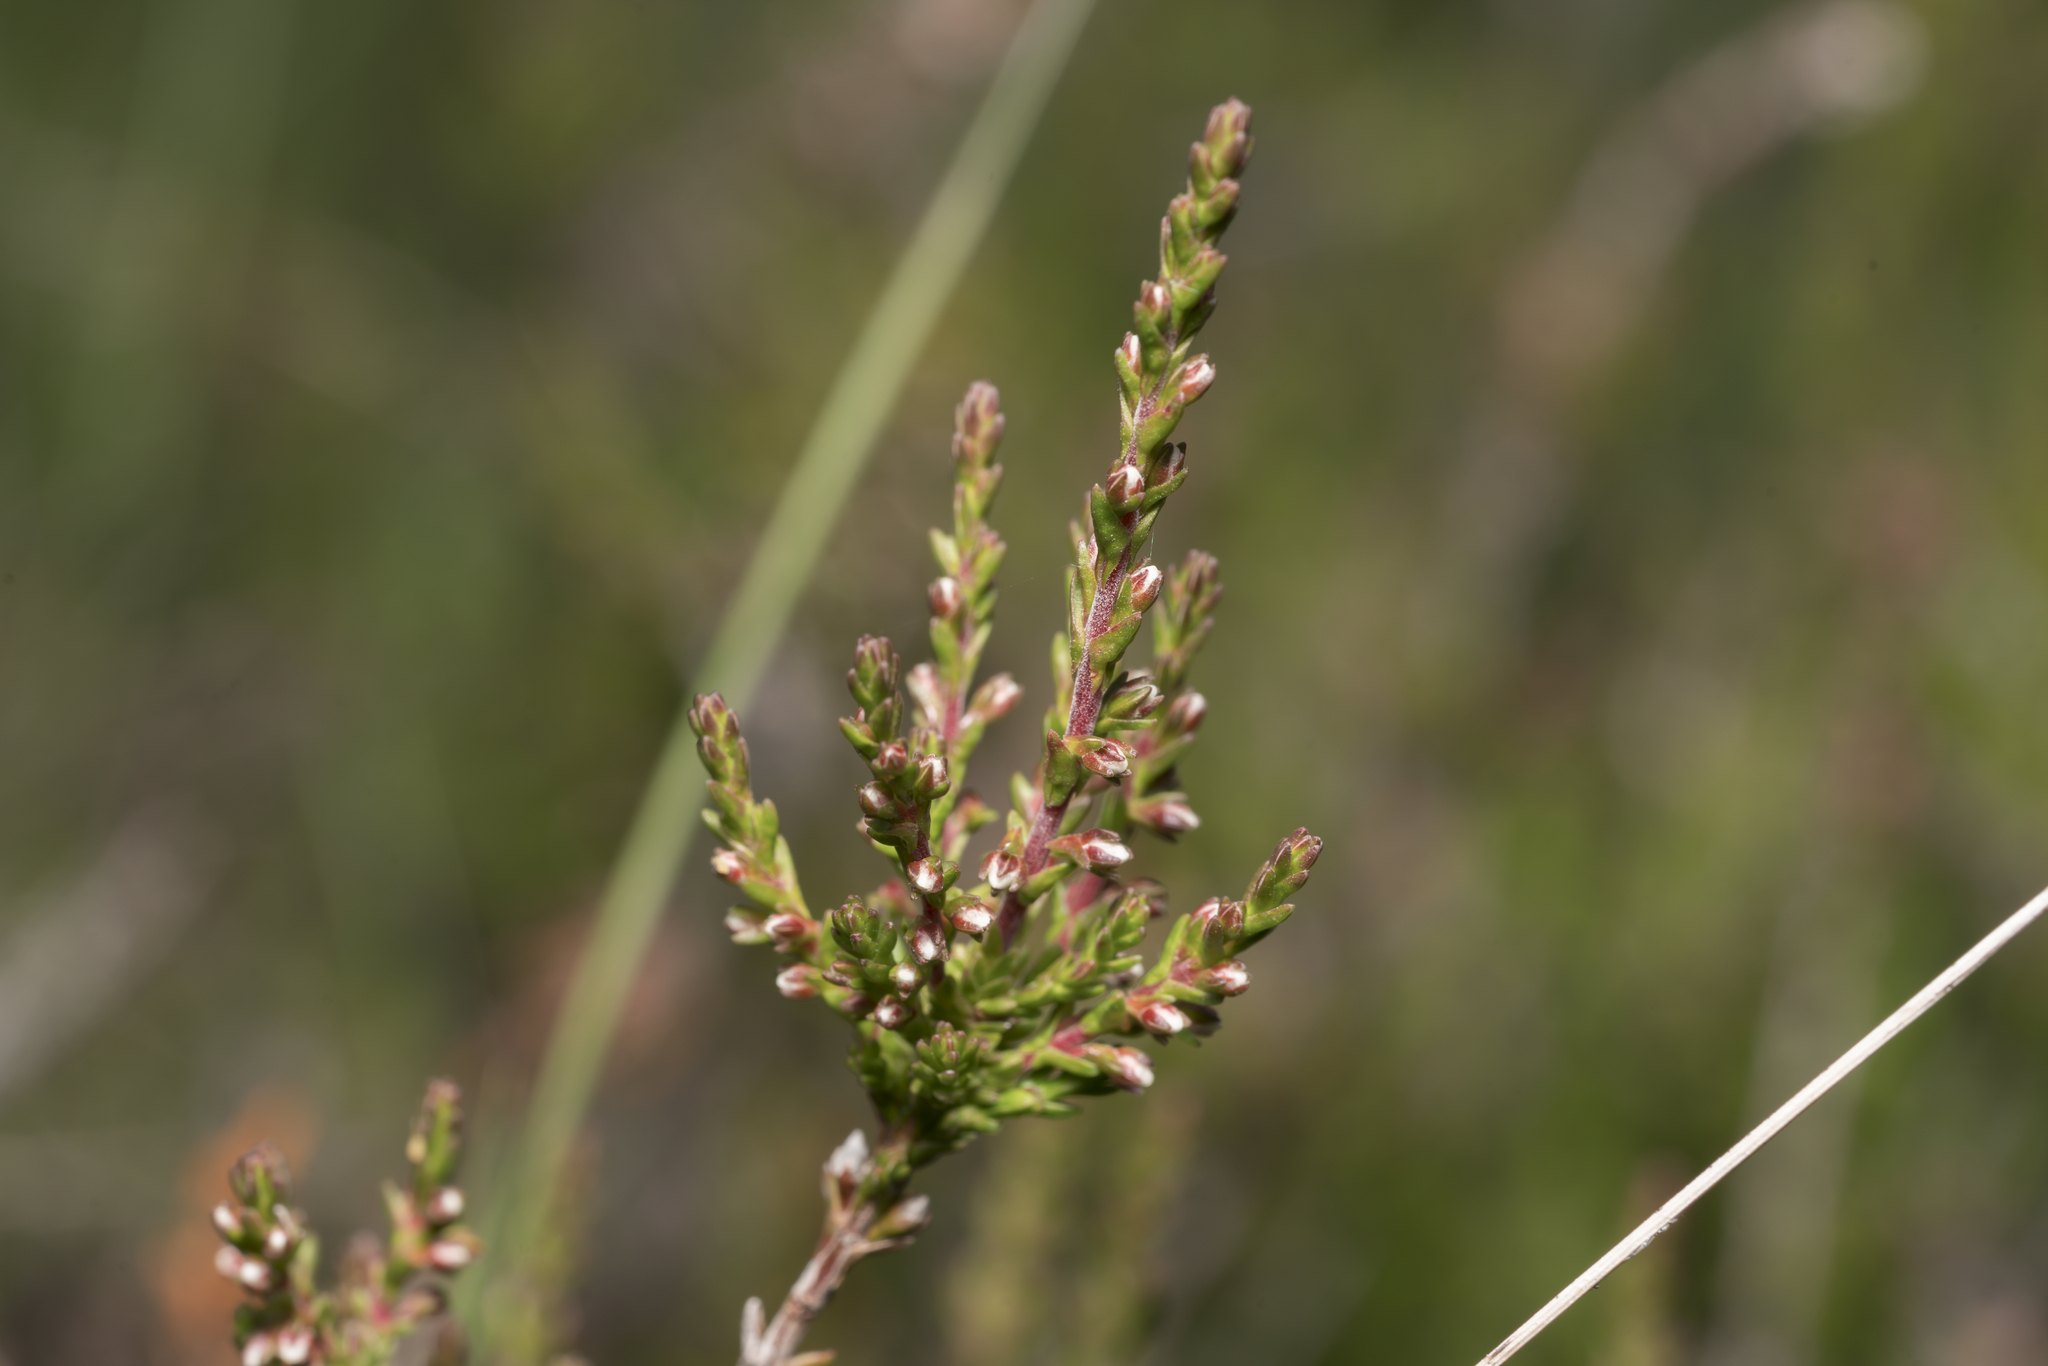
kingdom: Plantae
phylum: Tracheophyta
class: Magnoliopsida
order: Ericales
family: Ericaceae
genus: Calluna
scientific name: Calluna vulgaris
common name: Heather
